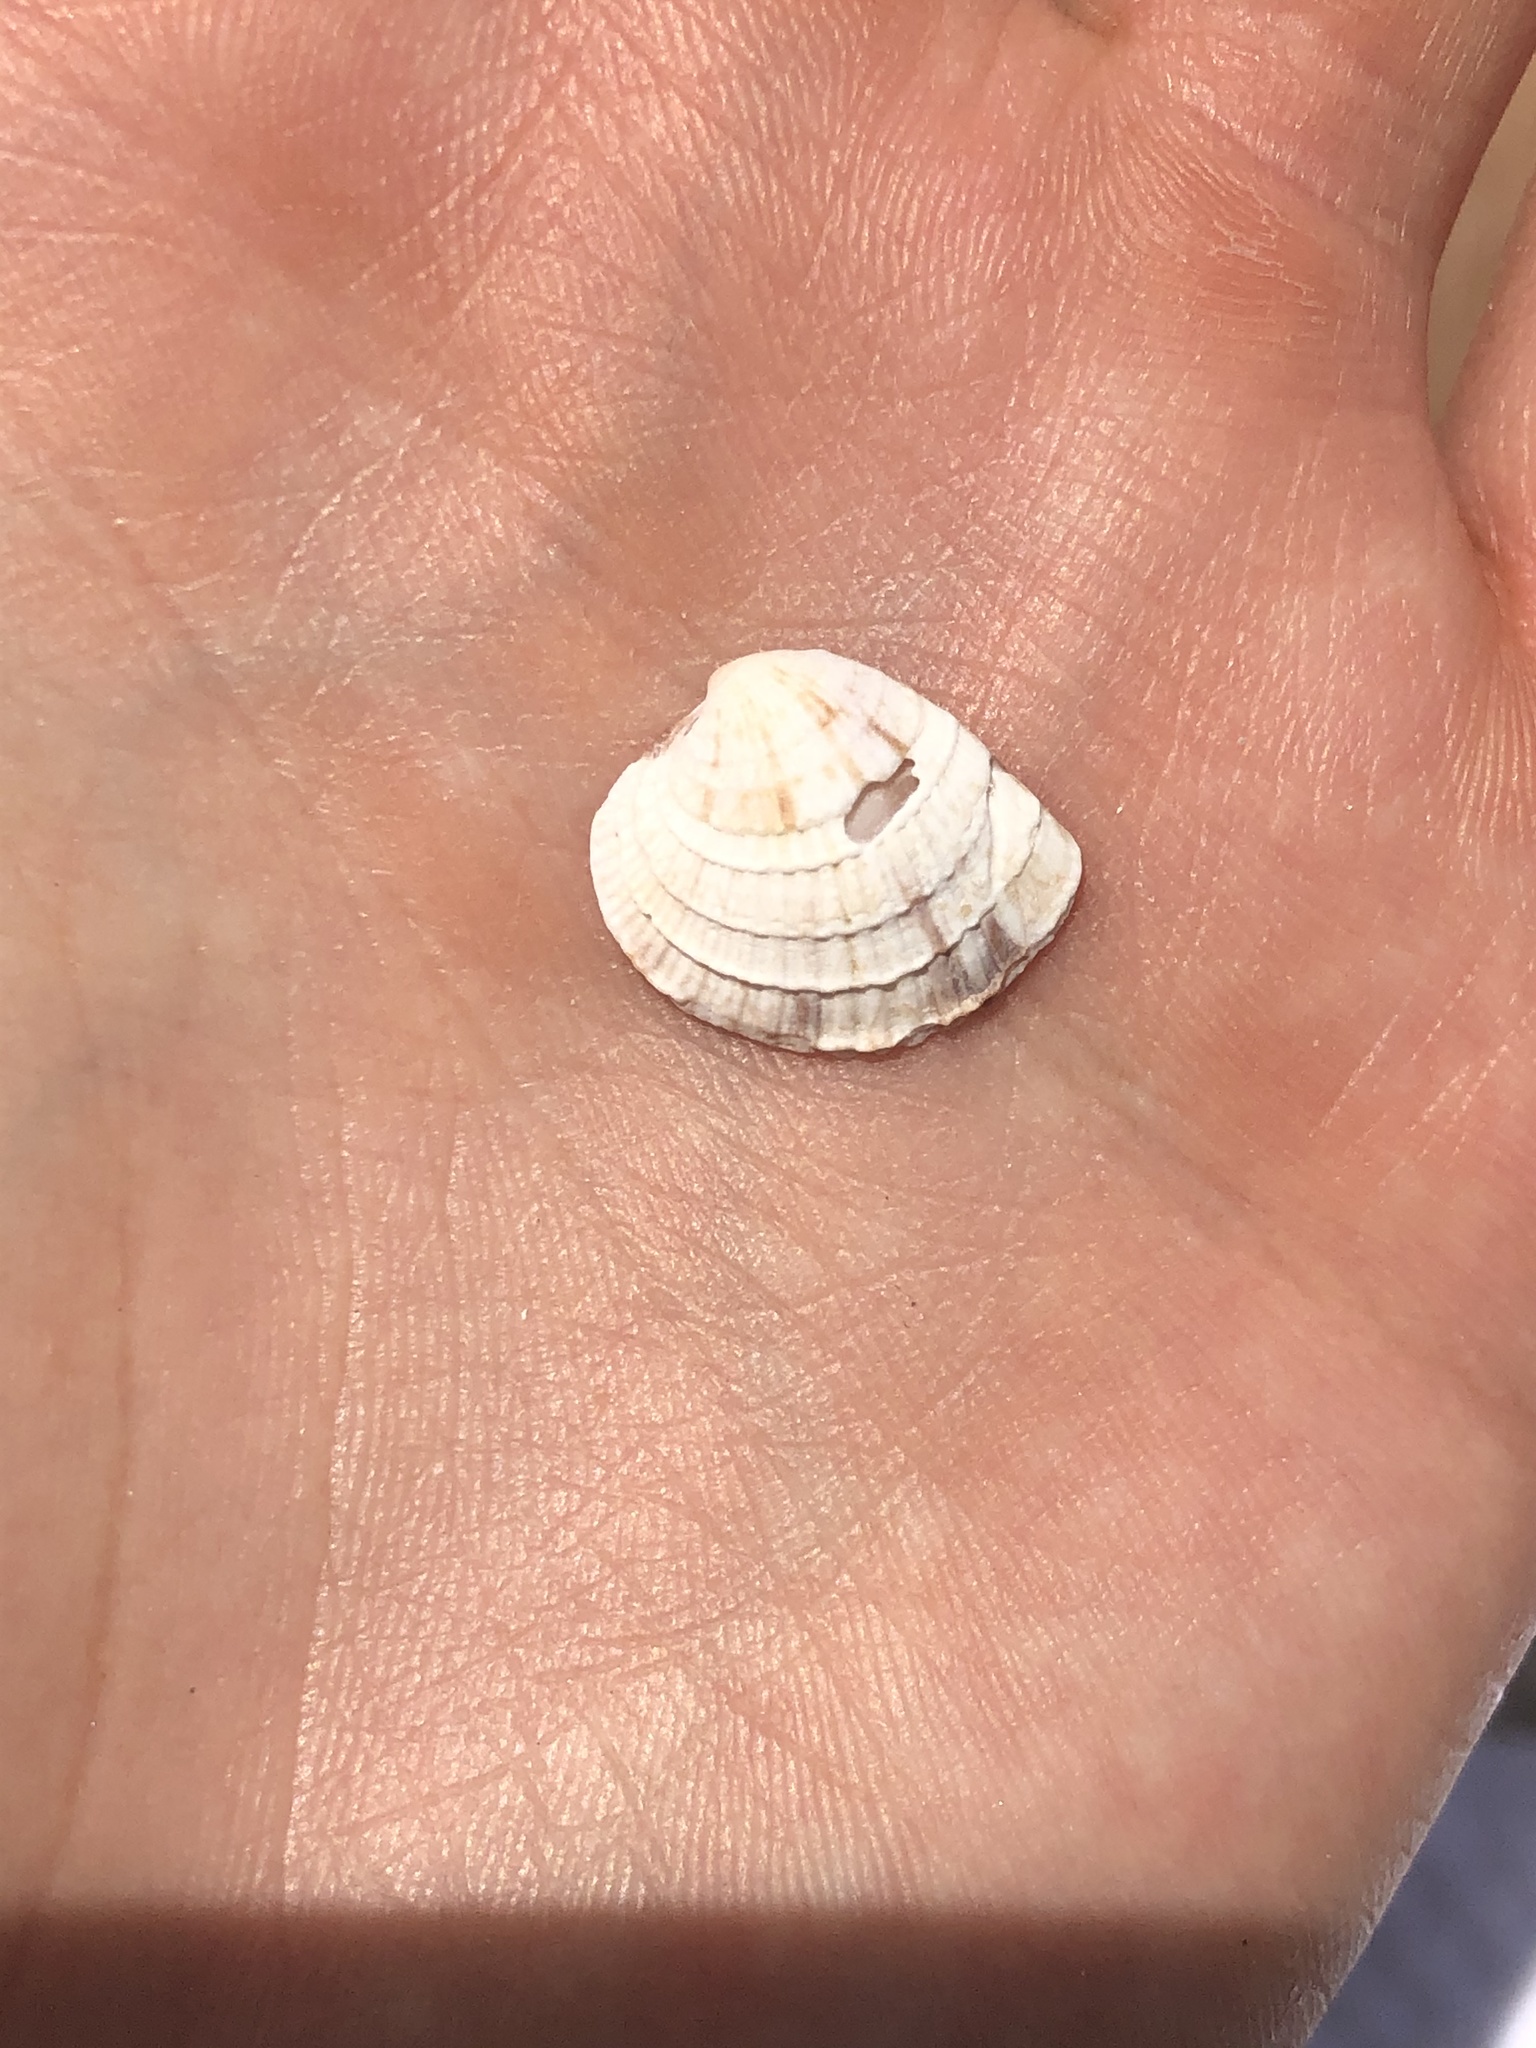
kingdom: Animalia
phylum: Mollusca
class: Bivalvia
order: Venerida
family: Veneridae
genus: Chione
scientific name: Chione elevata
